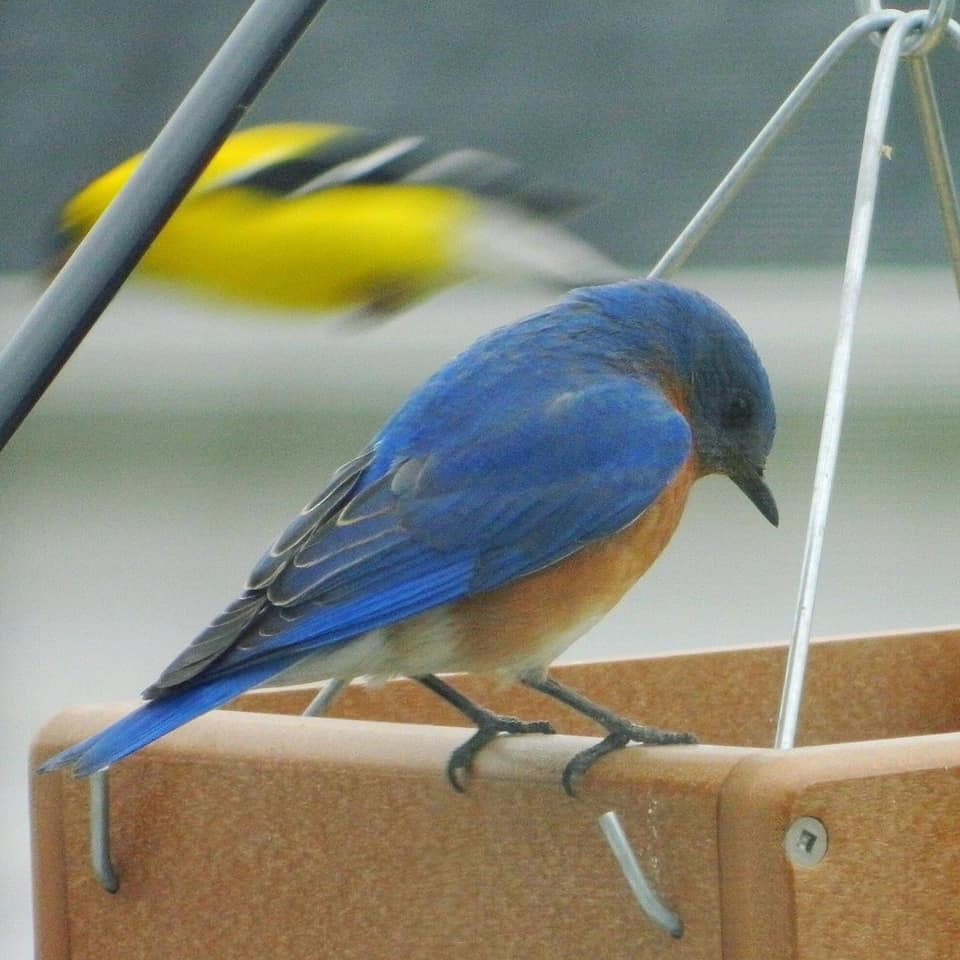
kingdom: Animalia
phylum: Chordata
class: Aves
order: Passeriformes
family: Turdidae
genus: Sialia
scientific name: Sialia sialis
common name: Eastern bluebird
